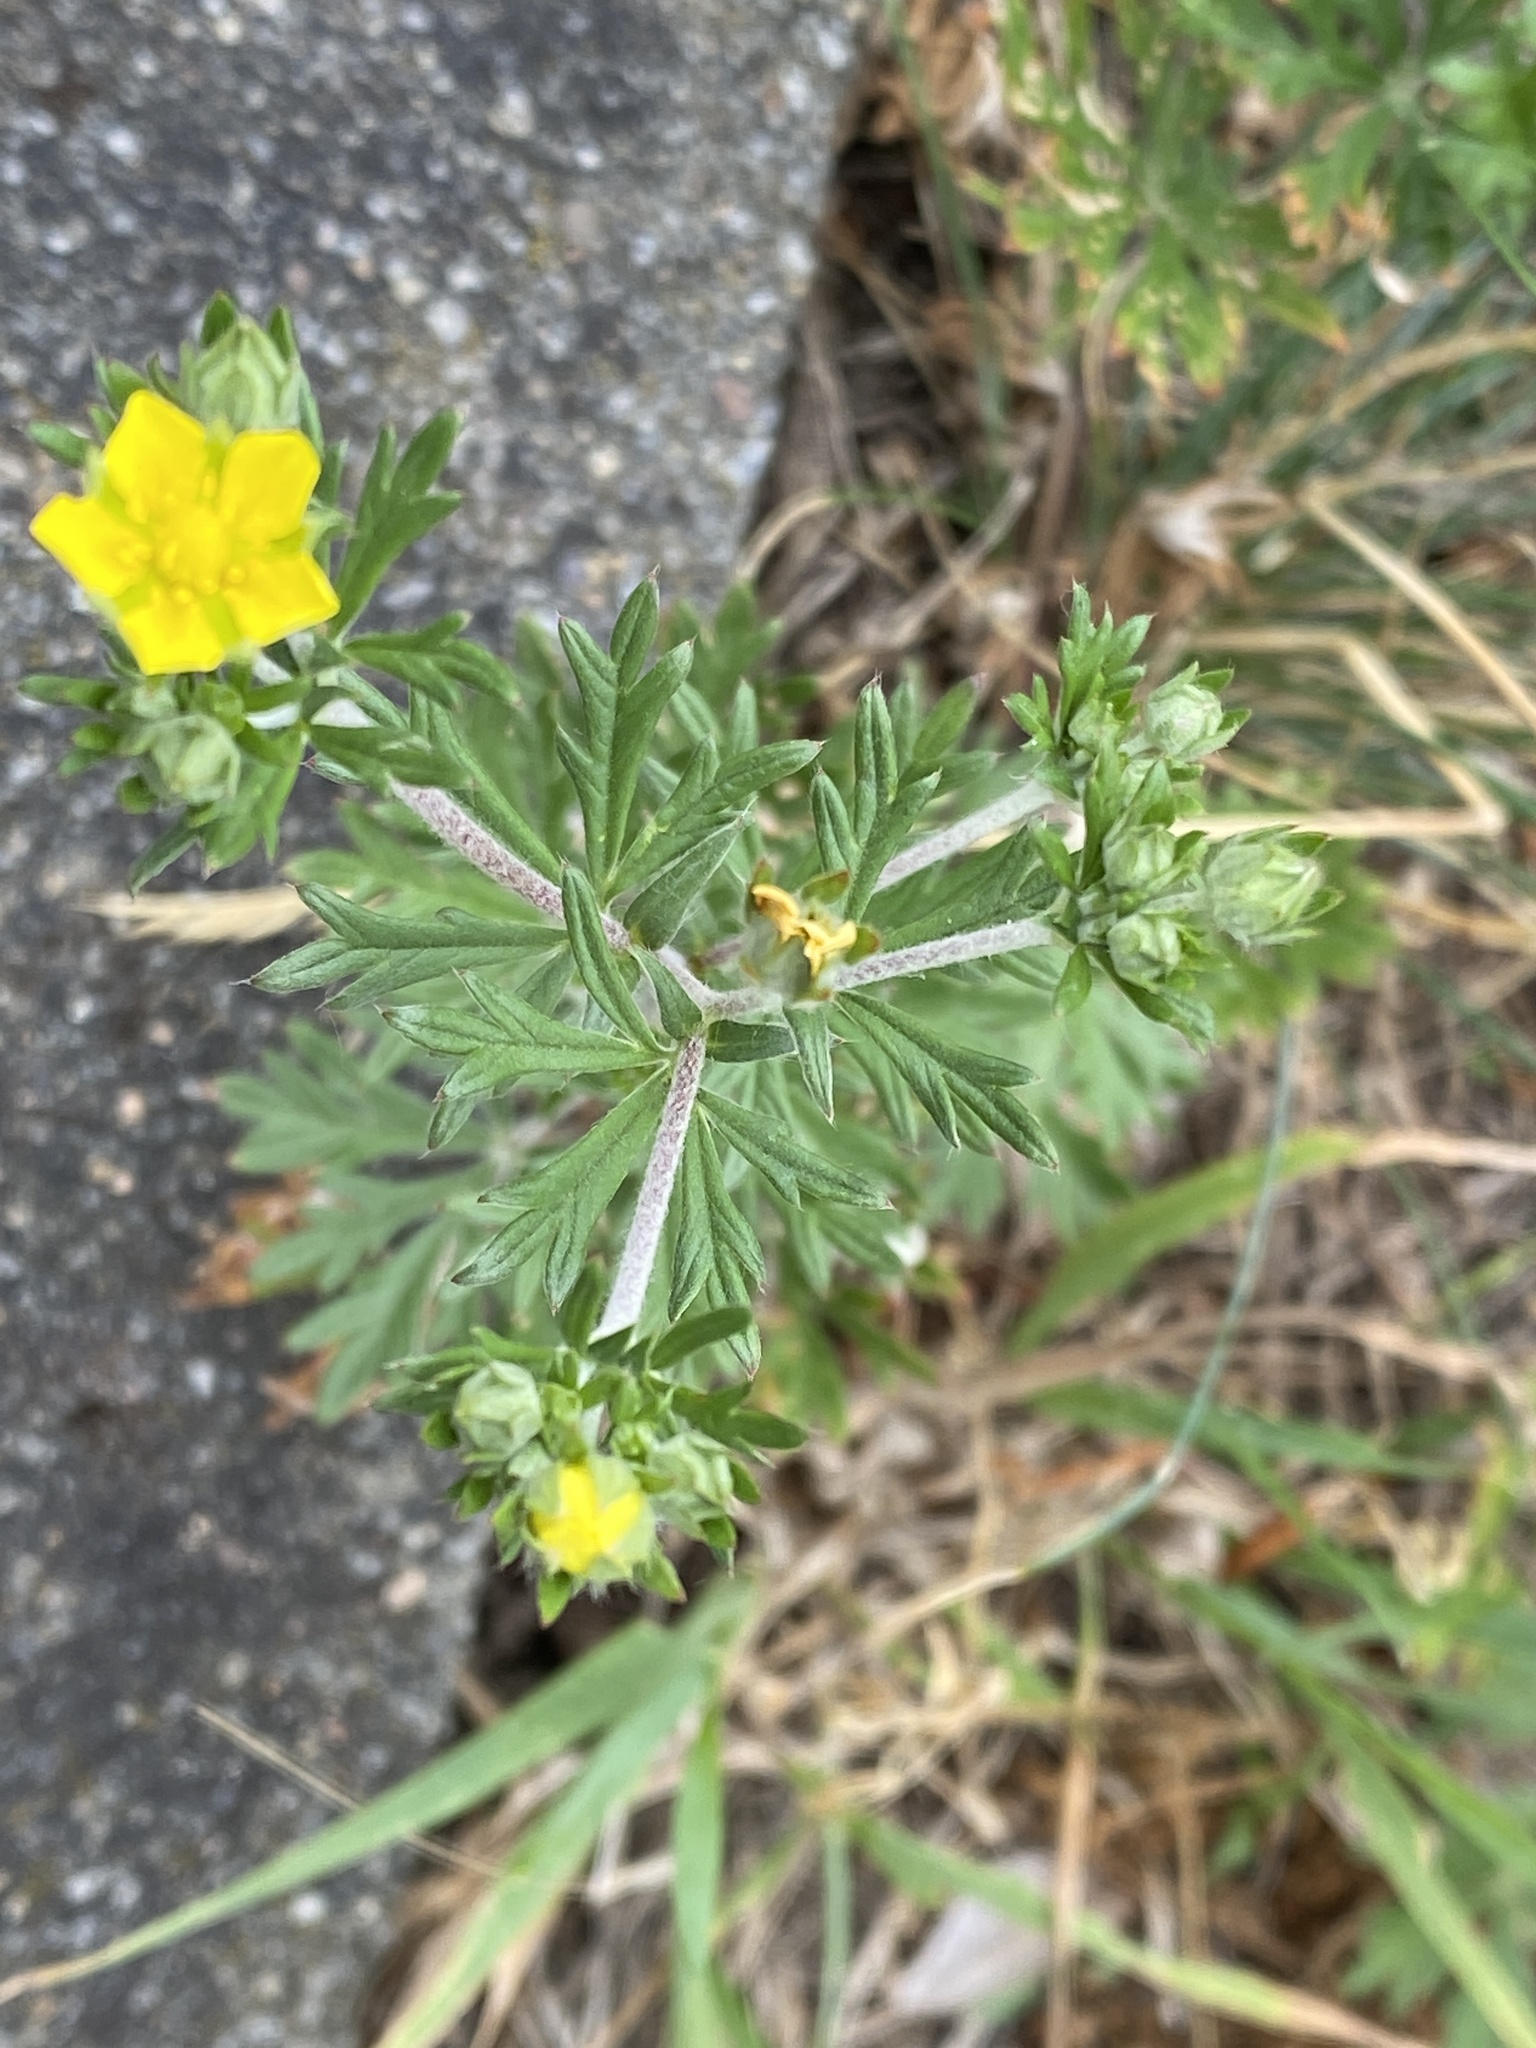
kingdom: Plantae
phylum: Tracheophyta
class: Magnoliopsida
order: Rosales
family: Rosaceae
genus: Potentilla
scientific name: Potentilla argentea
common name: Hoary cinquefoil
